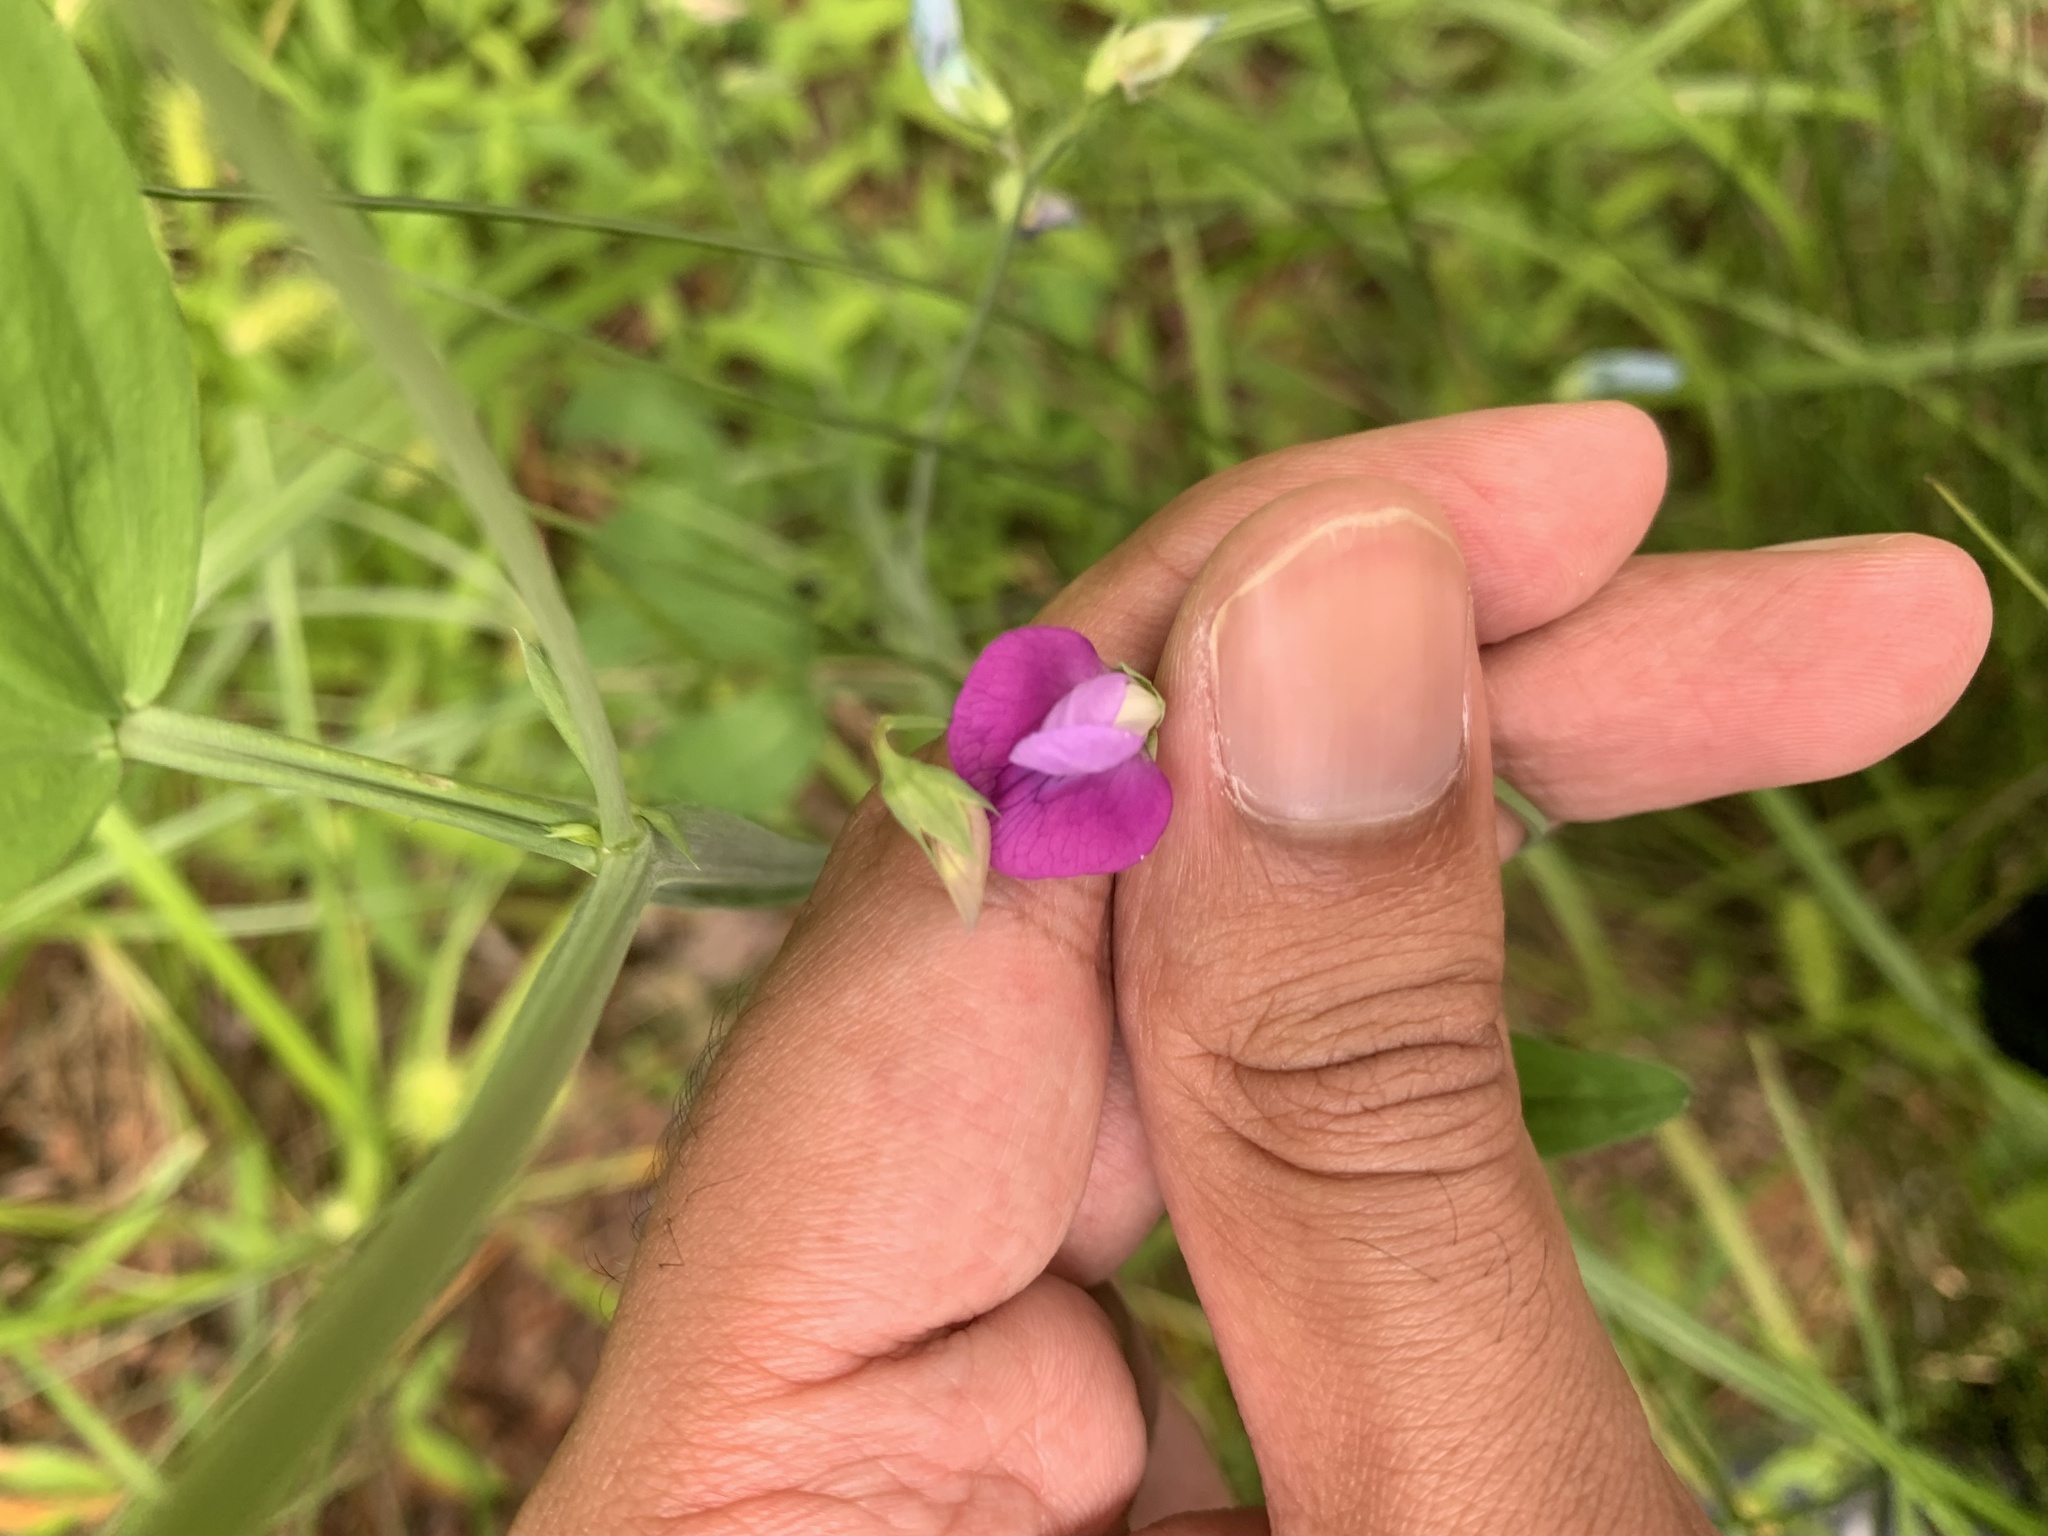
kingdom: Plantae
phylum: Tracheophyta
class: Magnoliopsida
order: Fabales
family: Fabaceae
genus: Lathyrus
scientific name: Lathyrus hirsutus
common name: Hairy vetchling
